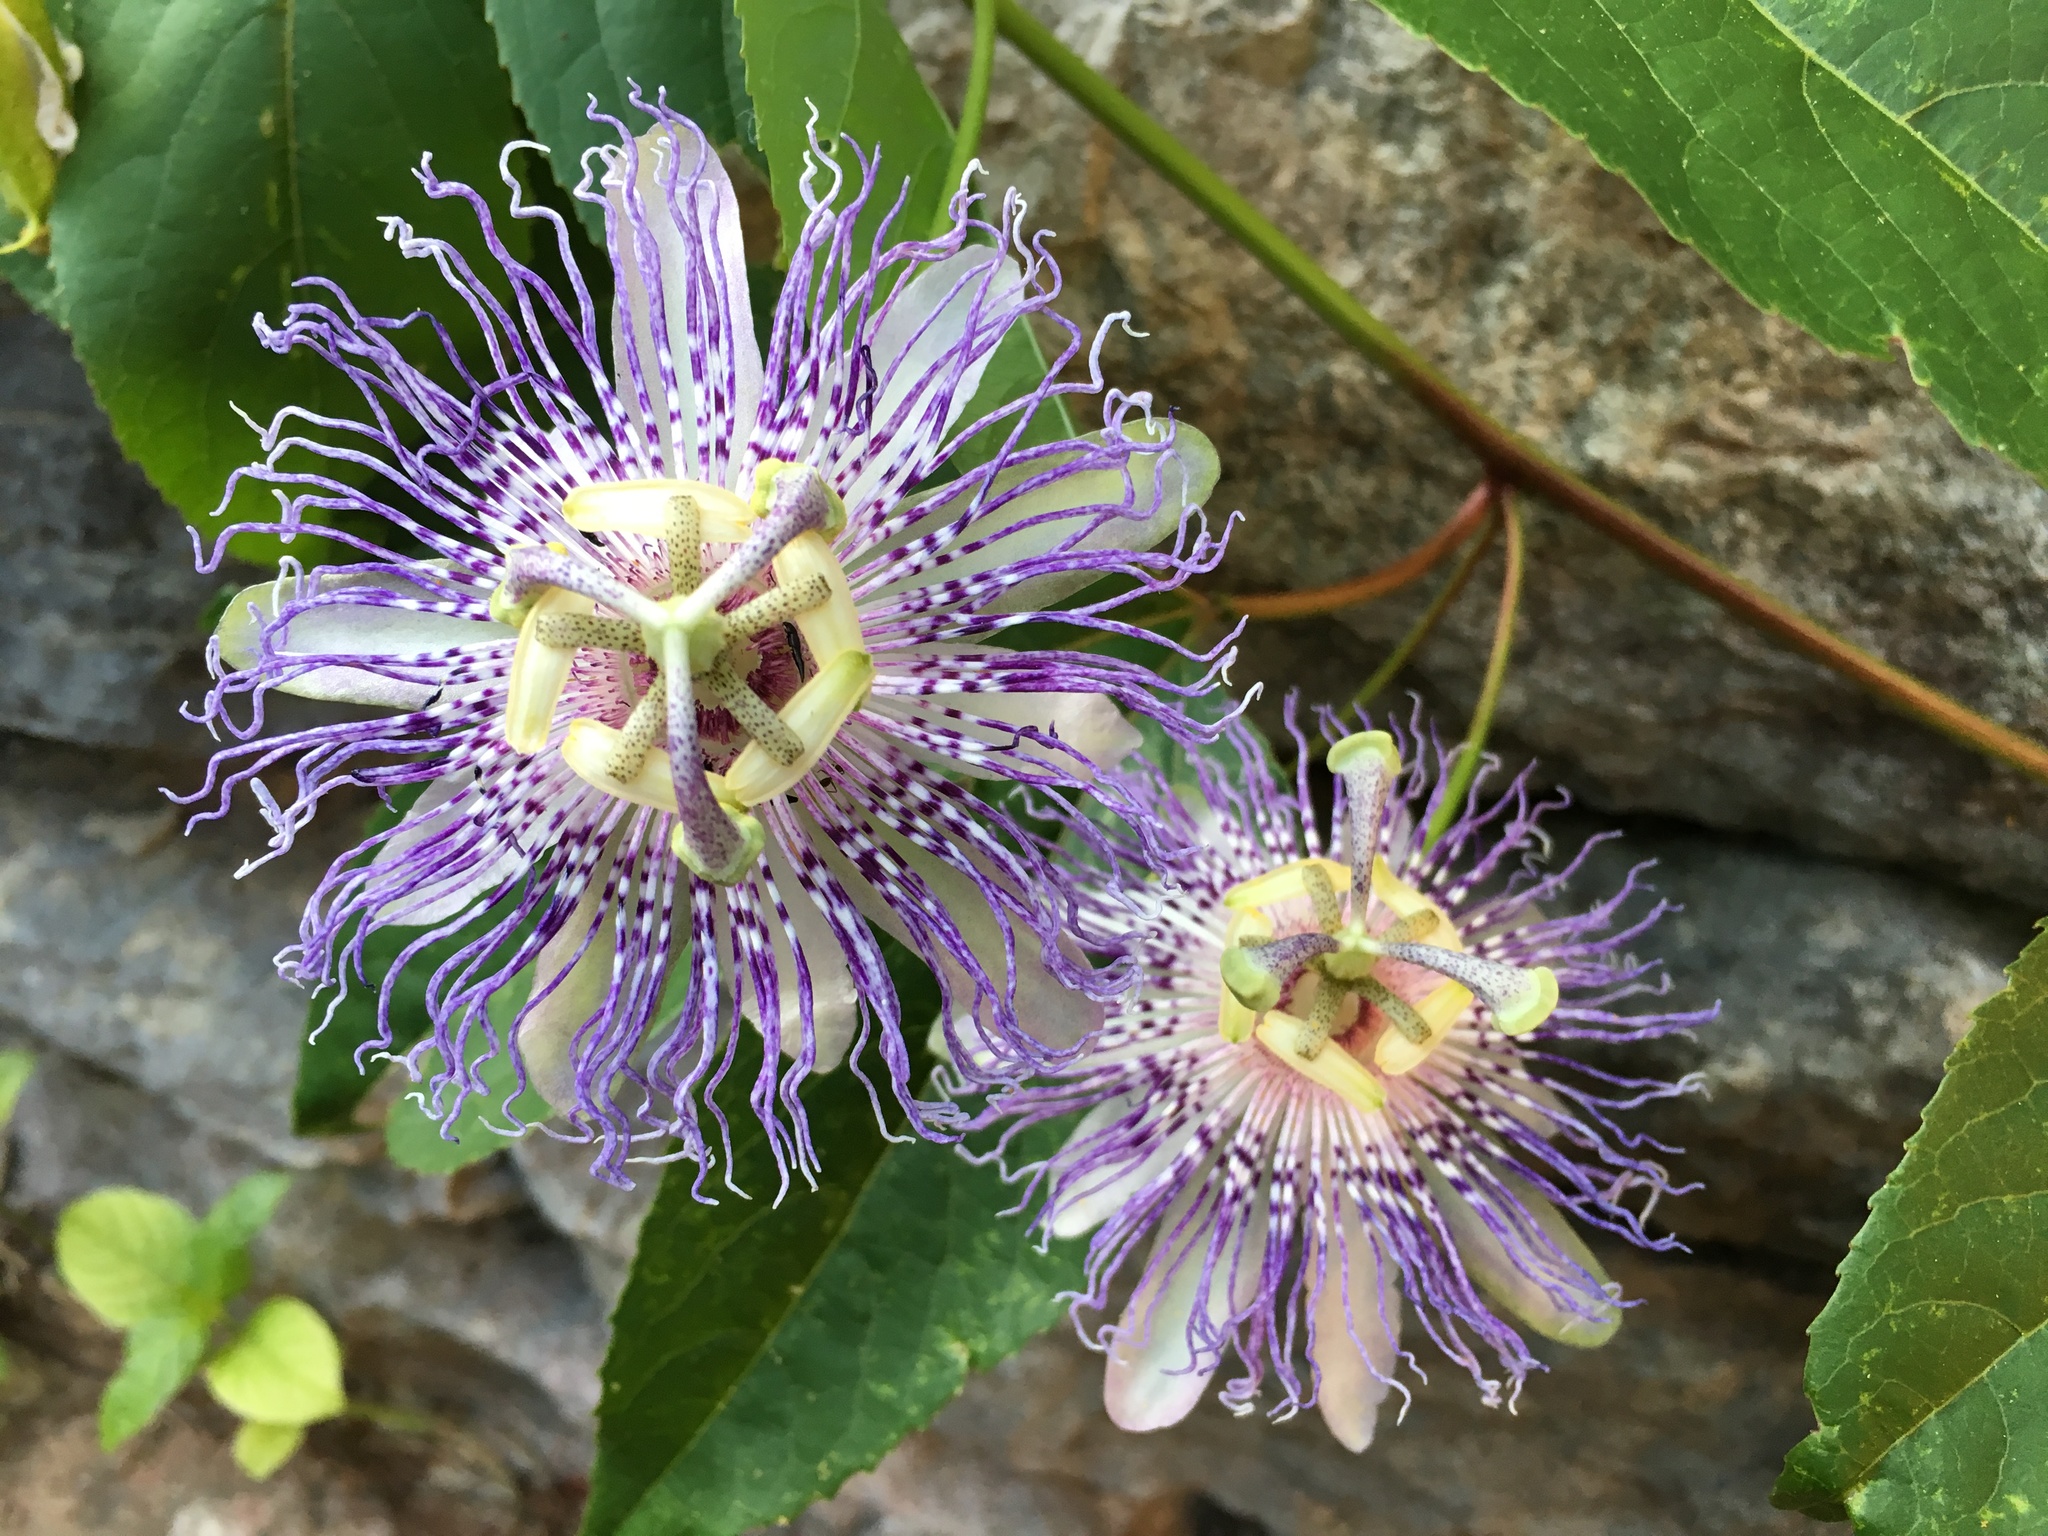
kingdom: Plantae
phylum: Tracheophyta
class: Magnoliopsida
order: Malpighiales
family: Passifloraceae
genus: Passiflora
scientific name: Passiflora incarnata
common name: Apricot-vine
